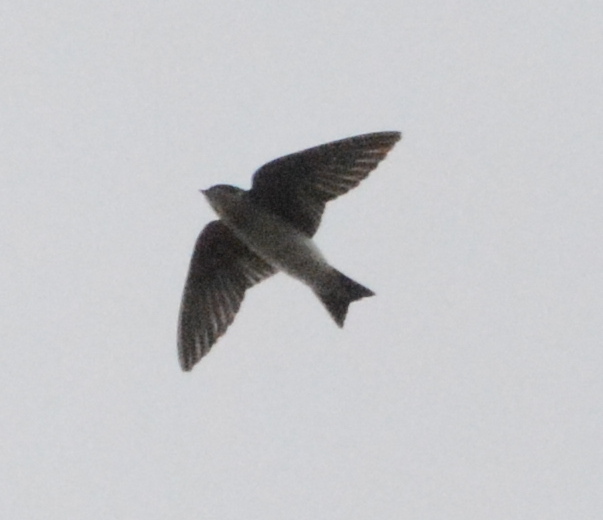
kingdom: Animalia
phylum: Chordata
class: Aves
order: Passeriformes
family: Hirundinidae
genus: Tachycineta
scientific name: Tachycineta bicolor
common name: Tree swallow
